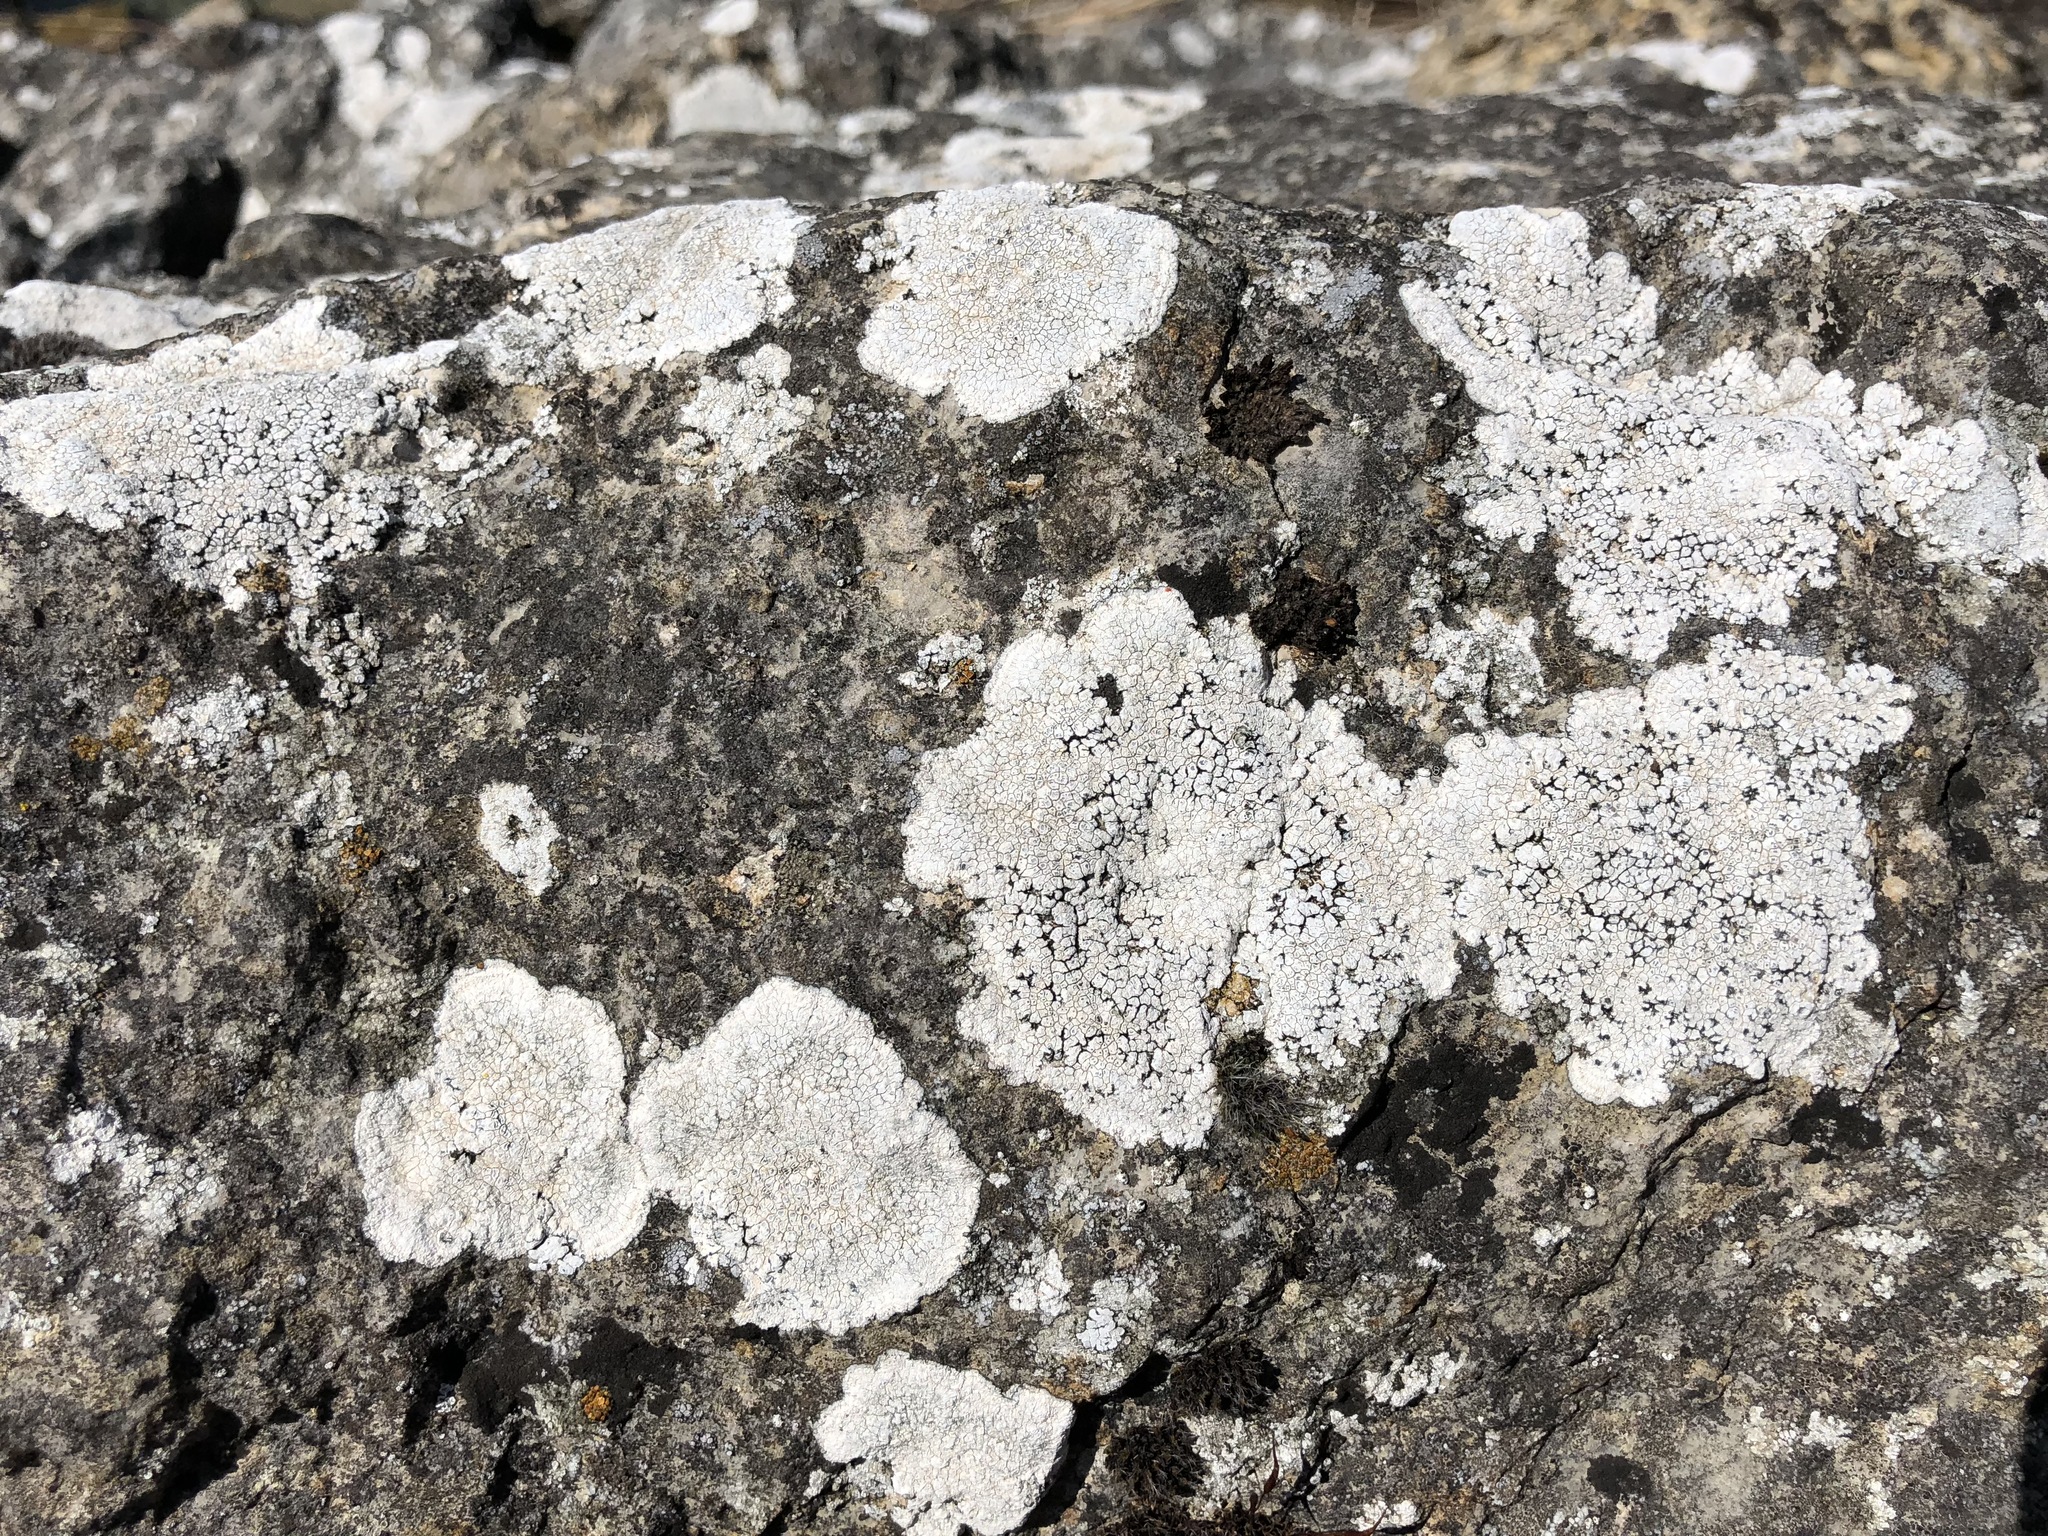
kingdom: Fungi
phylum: Ascomycota
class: Lecanoromycetes
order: Teloschistales
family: Teloschistaceae
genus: Kuettlingeria
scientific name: Kuettlingeria teicholyta
